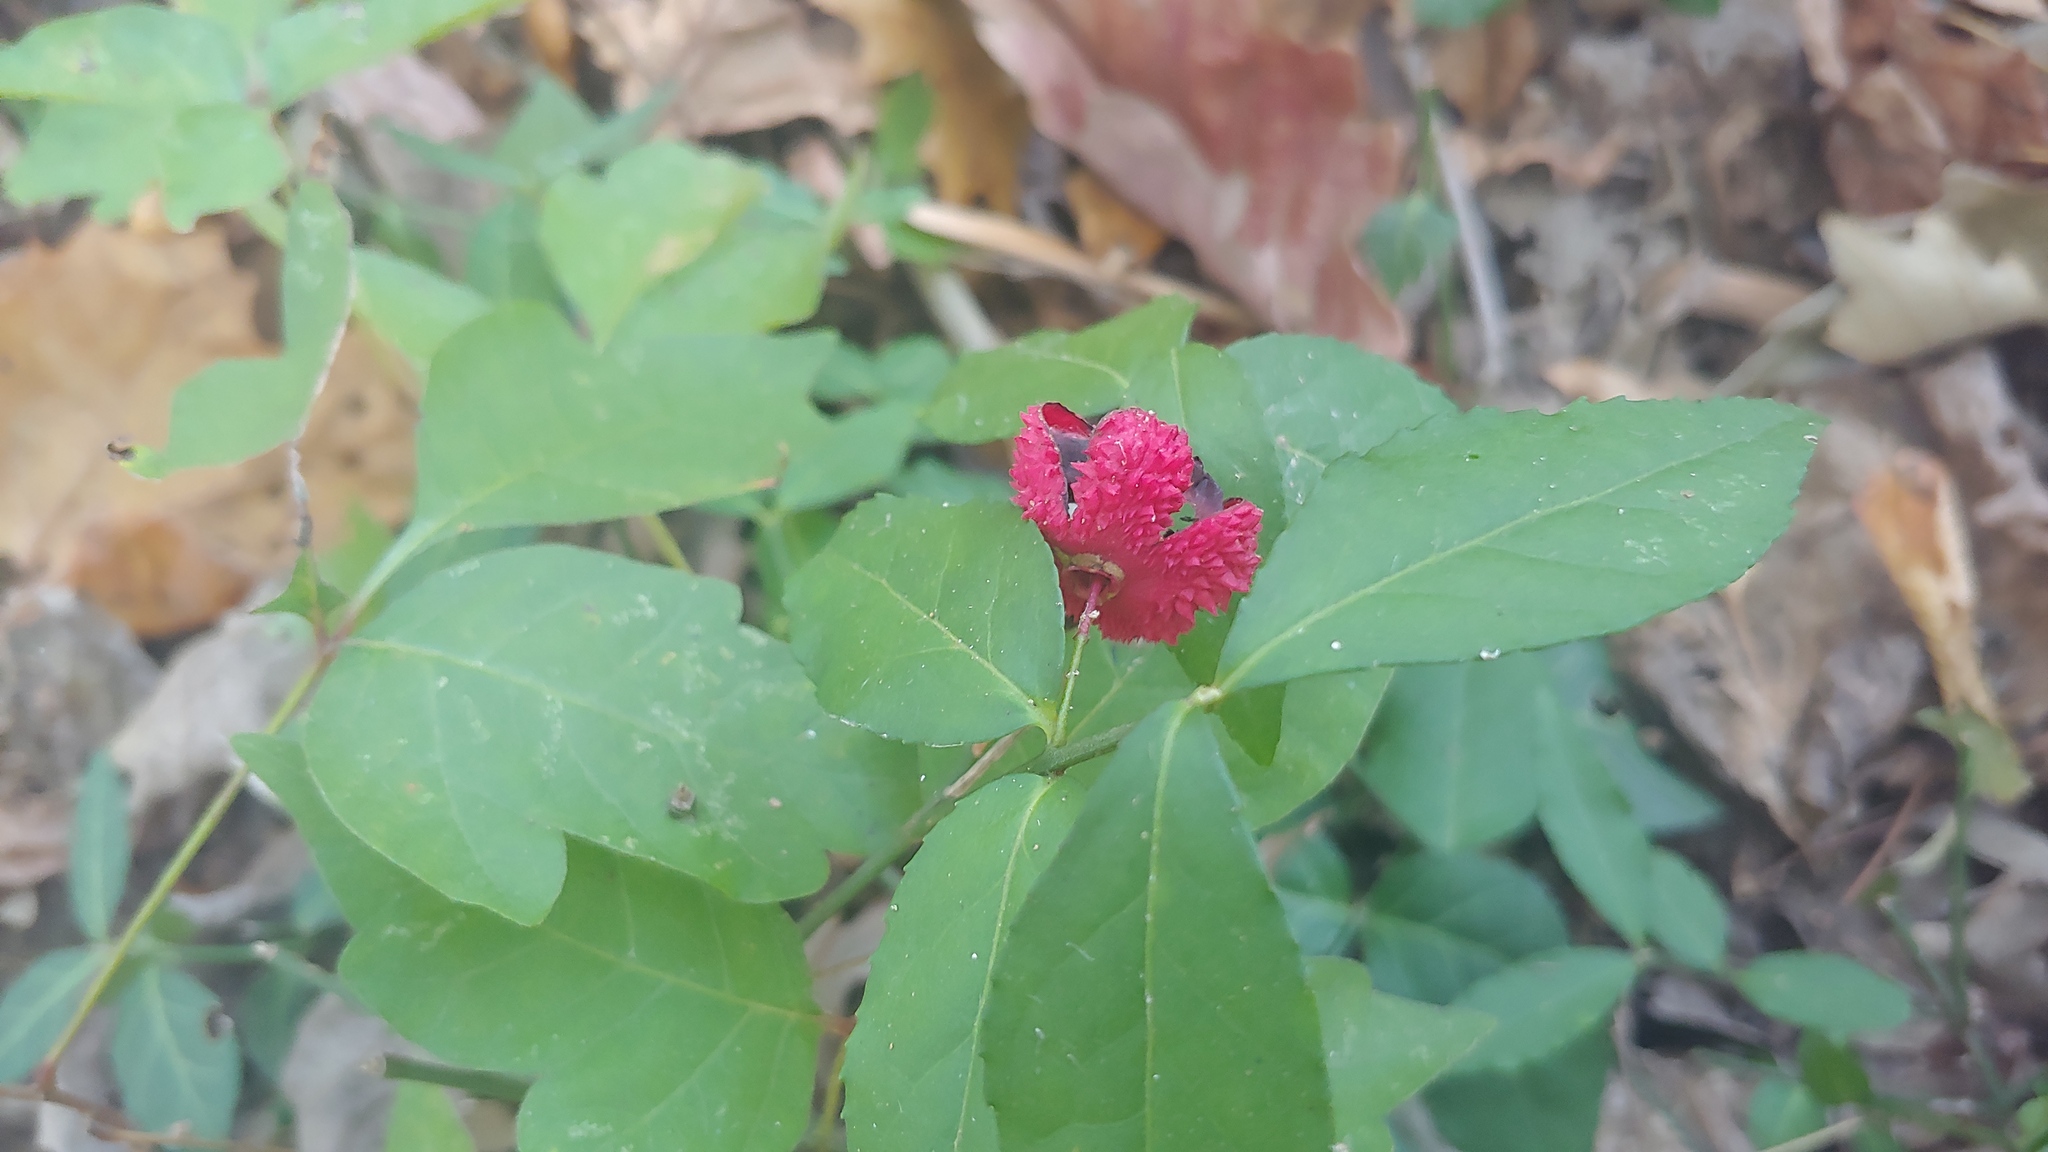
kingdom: Plantae
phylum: Tracheophyta
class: Magnoliopsida
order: Celastrales
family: Celastraceae
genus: Euonymus
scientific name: Euonymus americanus
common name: Bursting-heart
